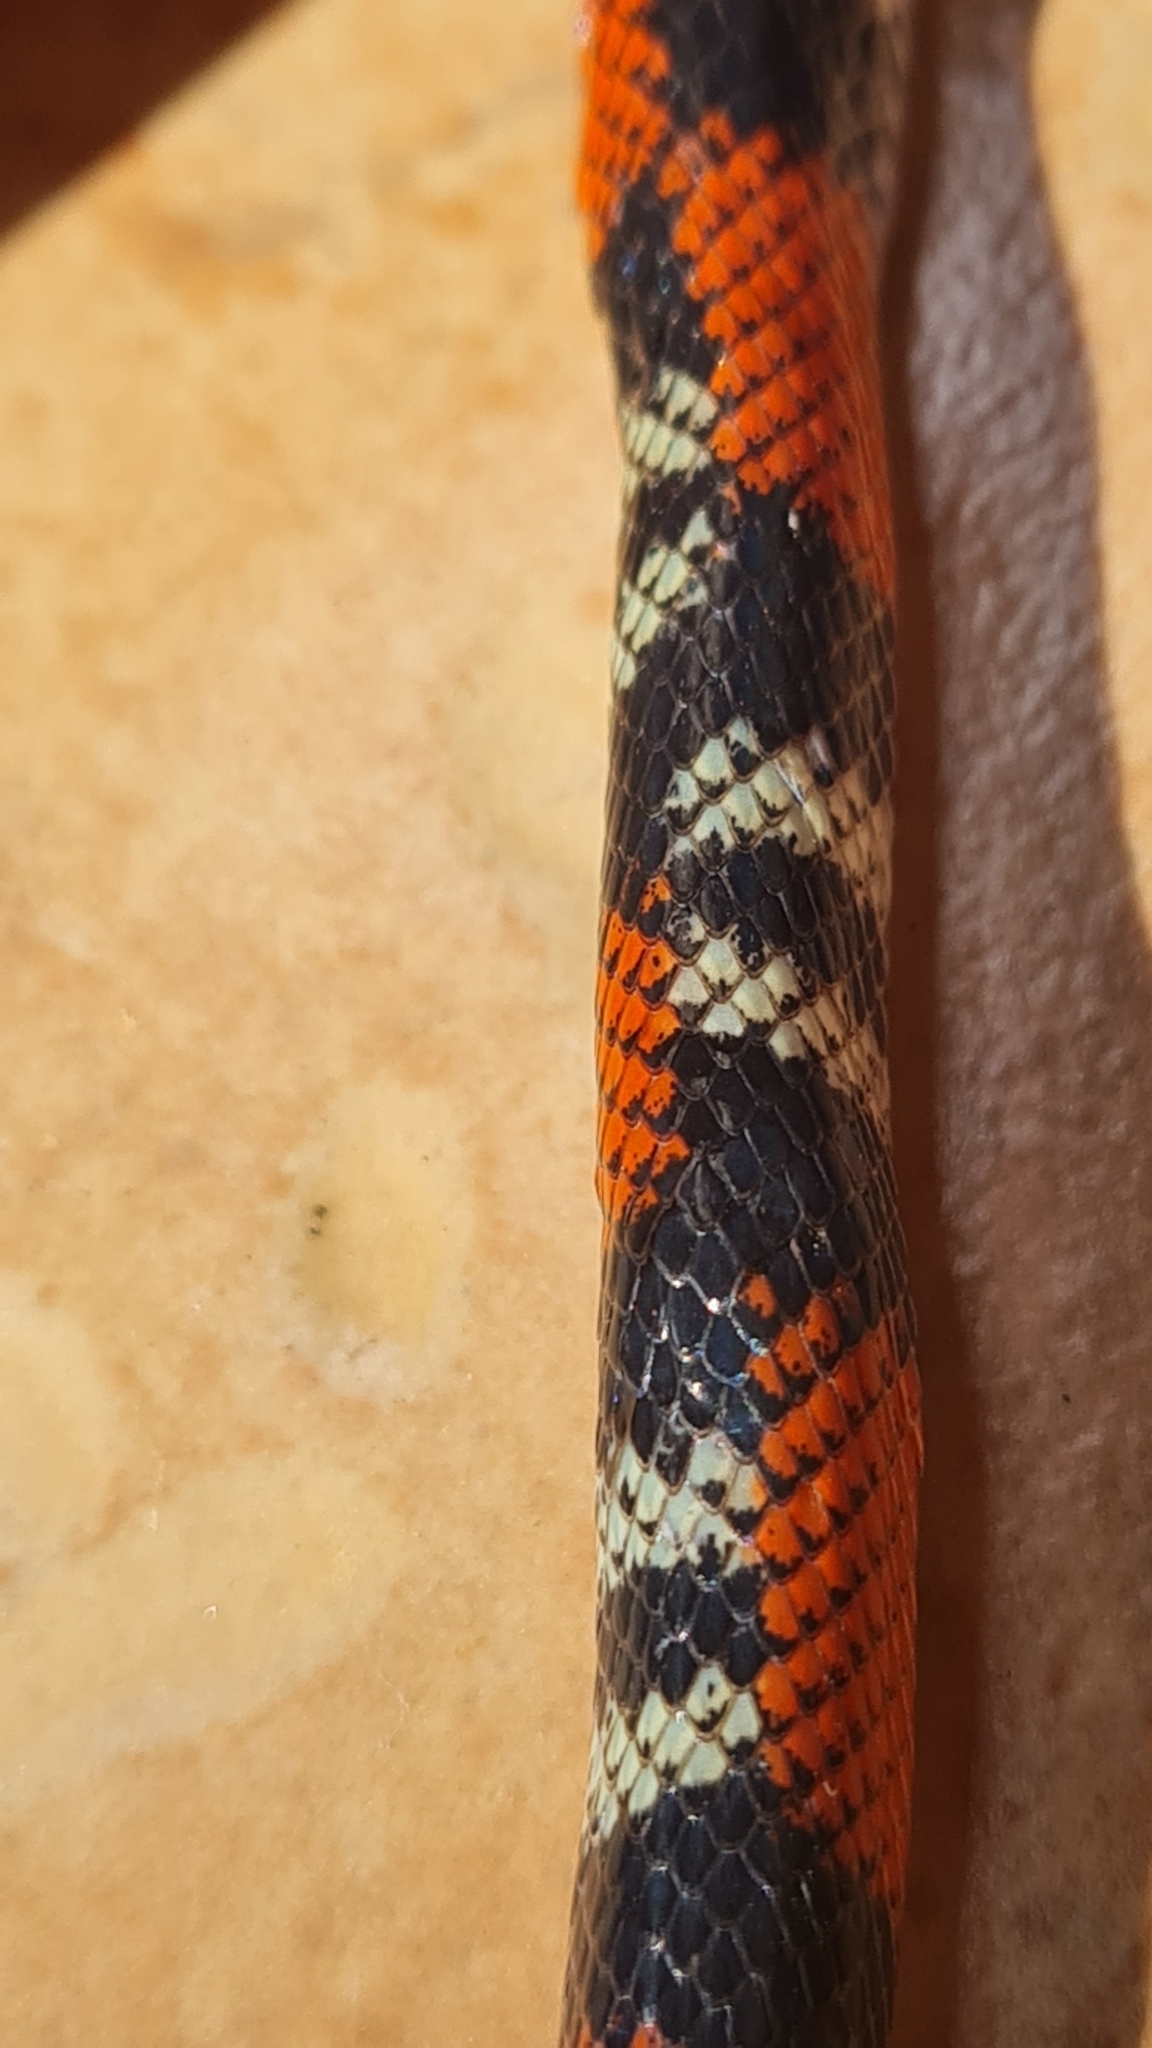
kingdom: Animalia
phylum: Chordata
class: Squamata
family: Colubridae
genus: Oxyrhopus
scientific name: Oxyrhopus guibei
